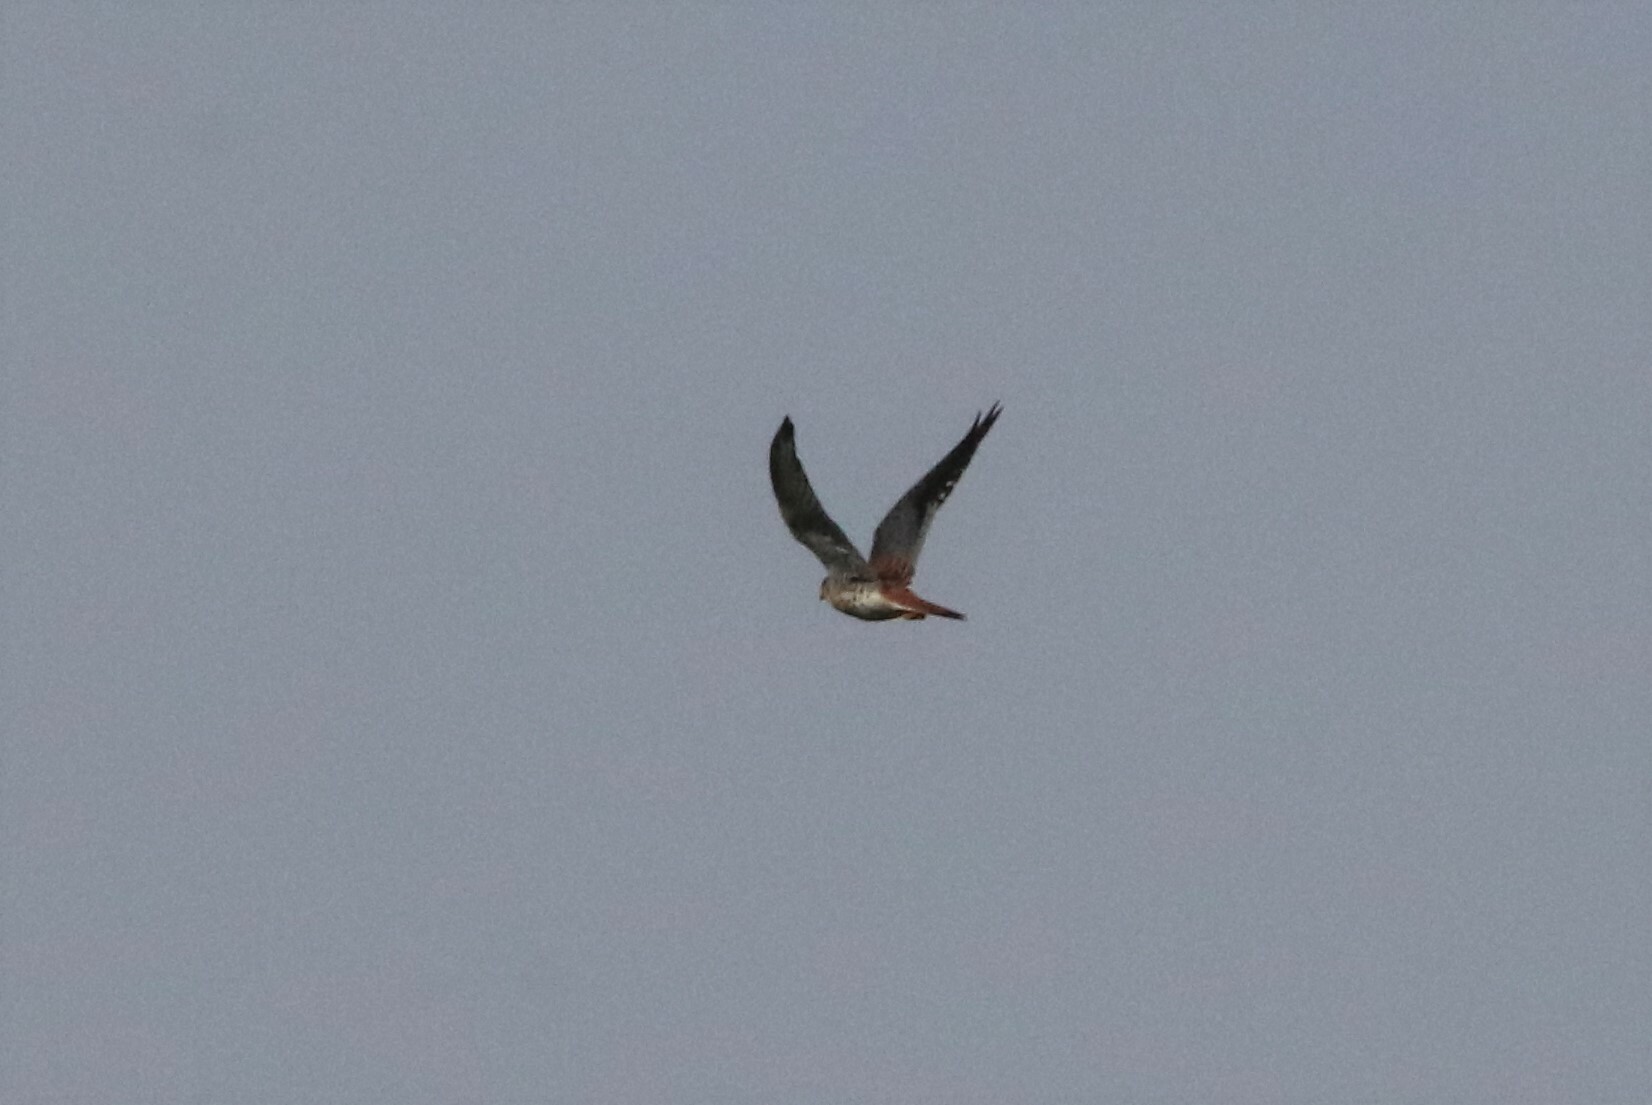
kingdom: Animalia
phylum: Chordata
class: Aves
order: Falconiformes
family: Falconidae
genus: Falco
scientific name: Falco sparverius
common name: American kestrel
